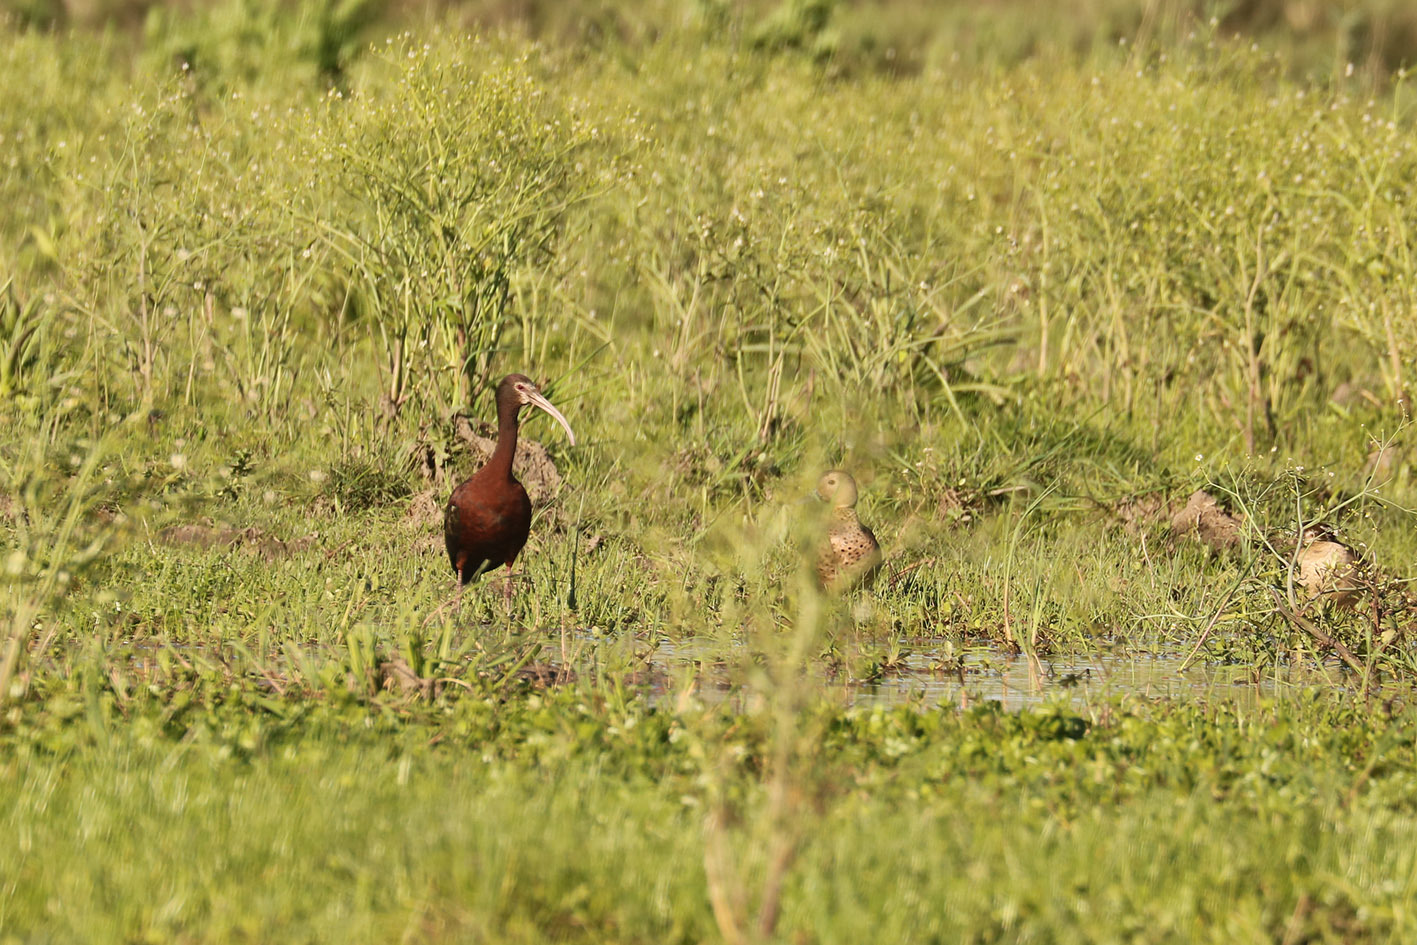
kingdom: Animalia
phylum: Chordata
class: Aves
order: Pelecaniformes
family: Threskiornithidae
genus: Plegadis
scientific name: Plegadis chihi
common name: White-faced ibis
